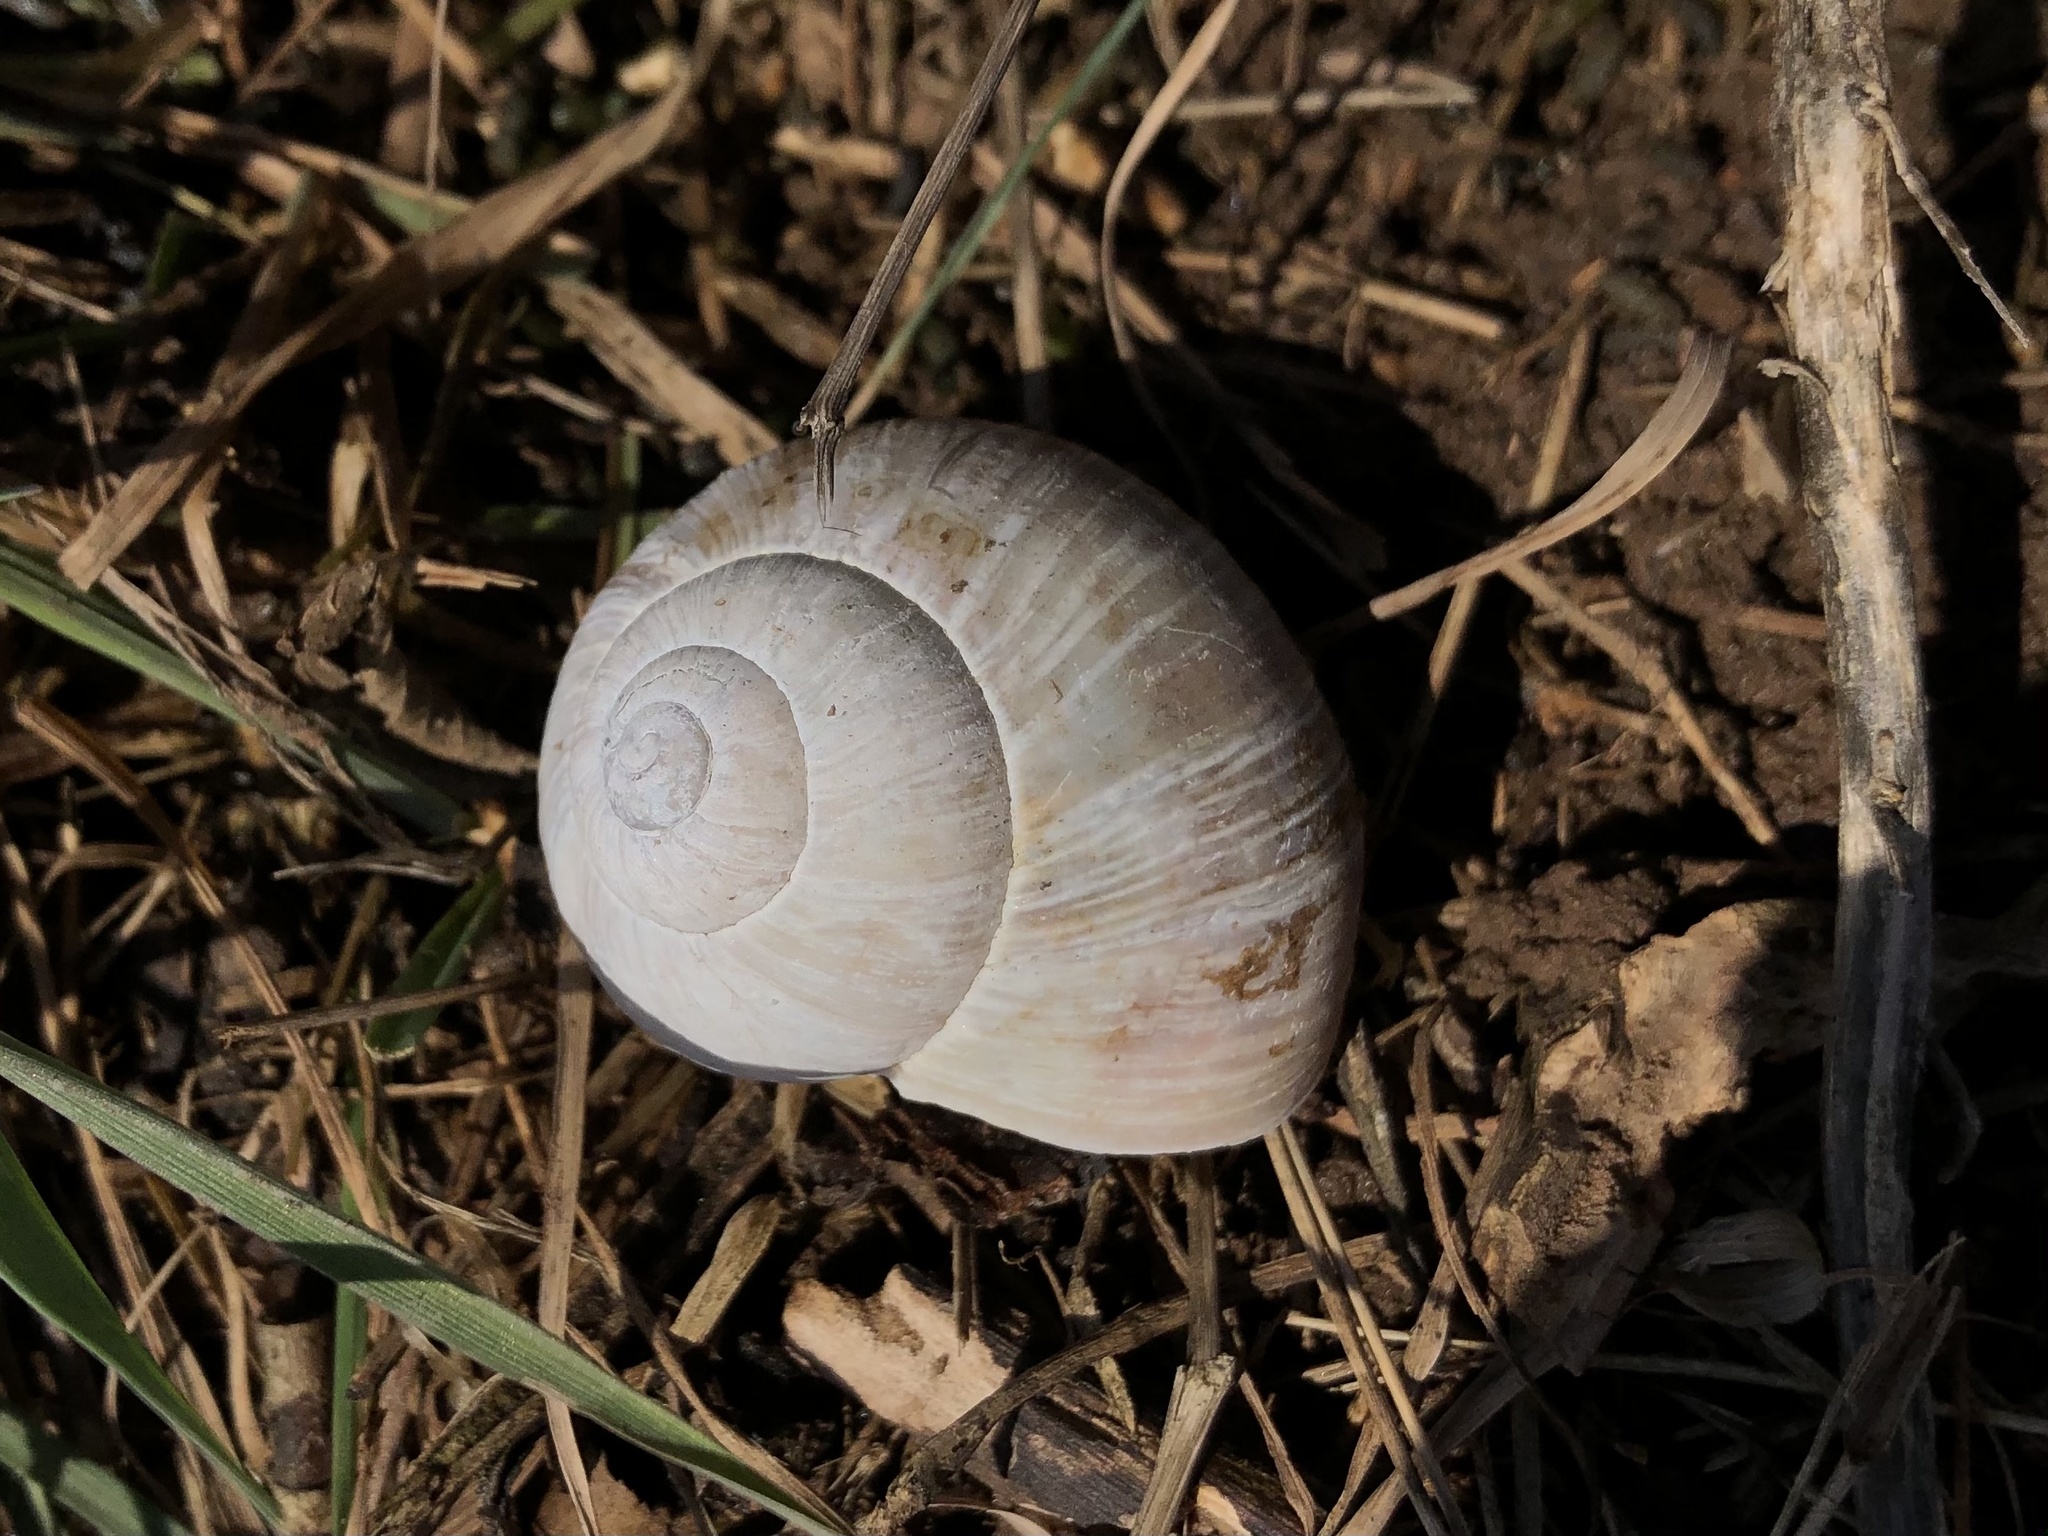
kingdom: Animalia
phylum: Mollusca
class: Gastropoda
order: Stylommatophora
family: Helicidae
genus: Helix
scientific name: Helix pomatia
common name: Roman snail
